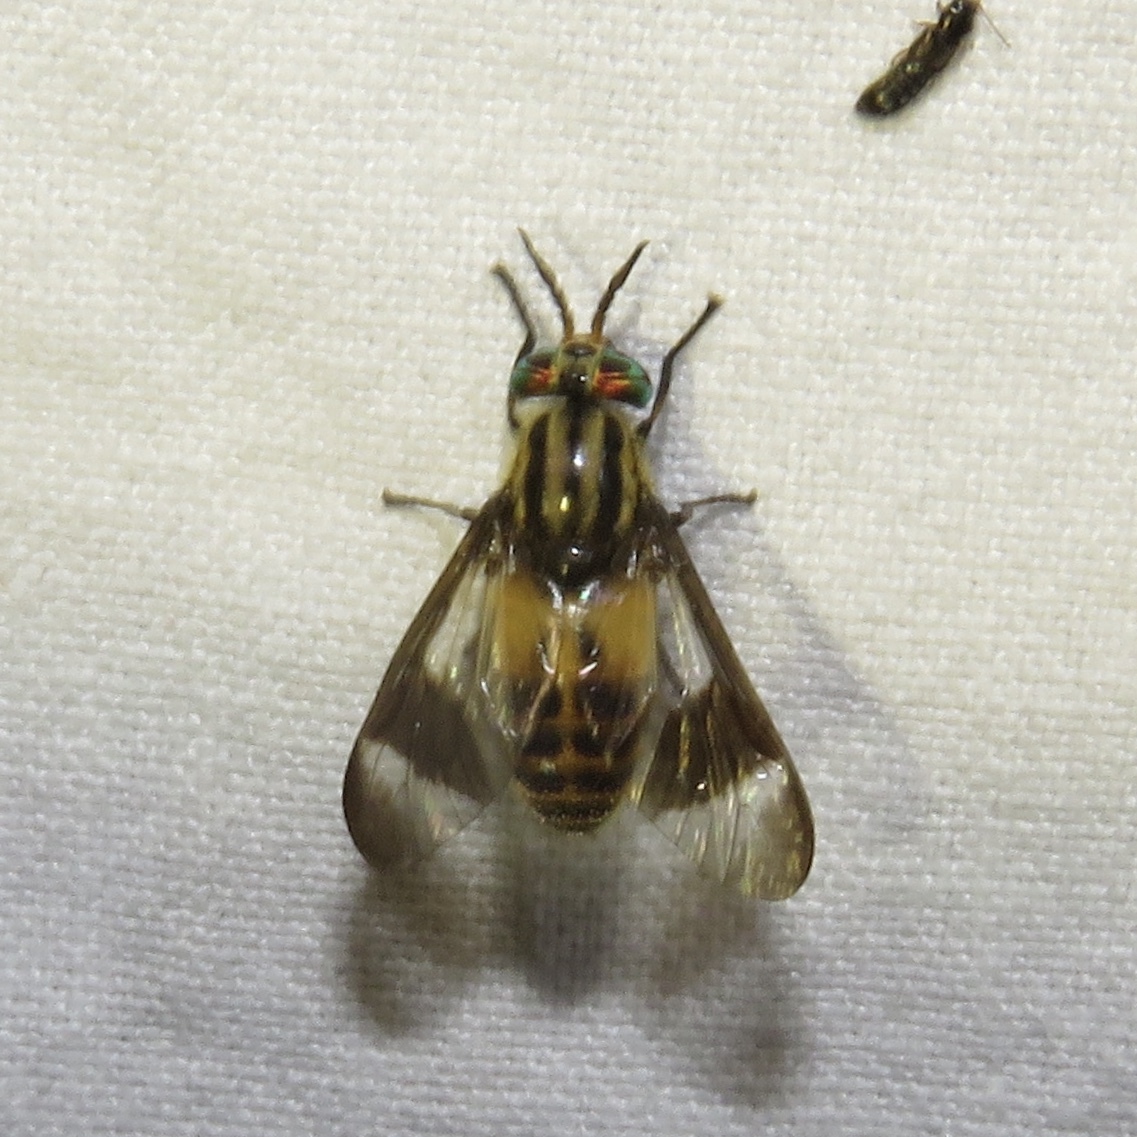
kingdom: Animalia
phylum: Arthropoda
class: Insecta
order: Diptera
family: Tabanidae
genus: Chrysops
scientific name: Chrysops geminatus
